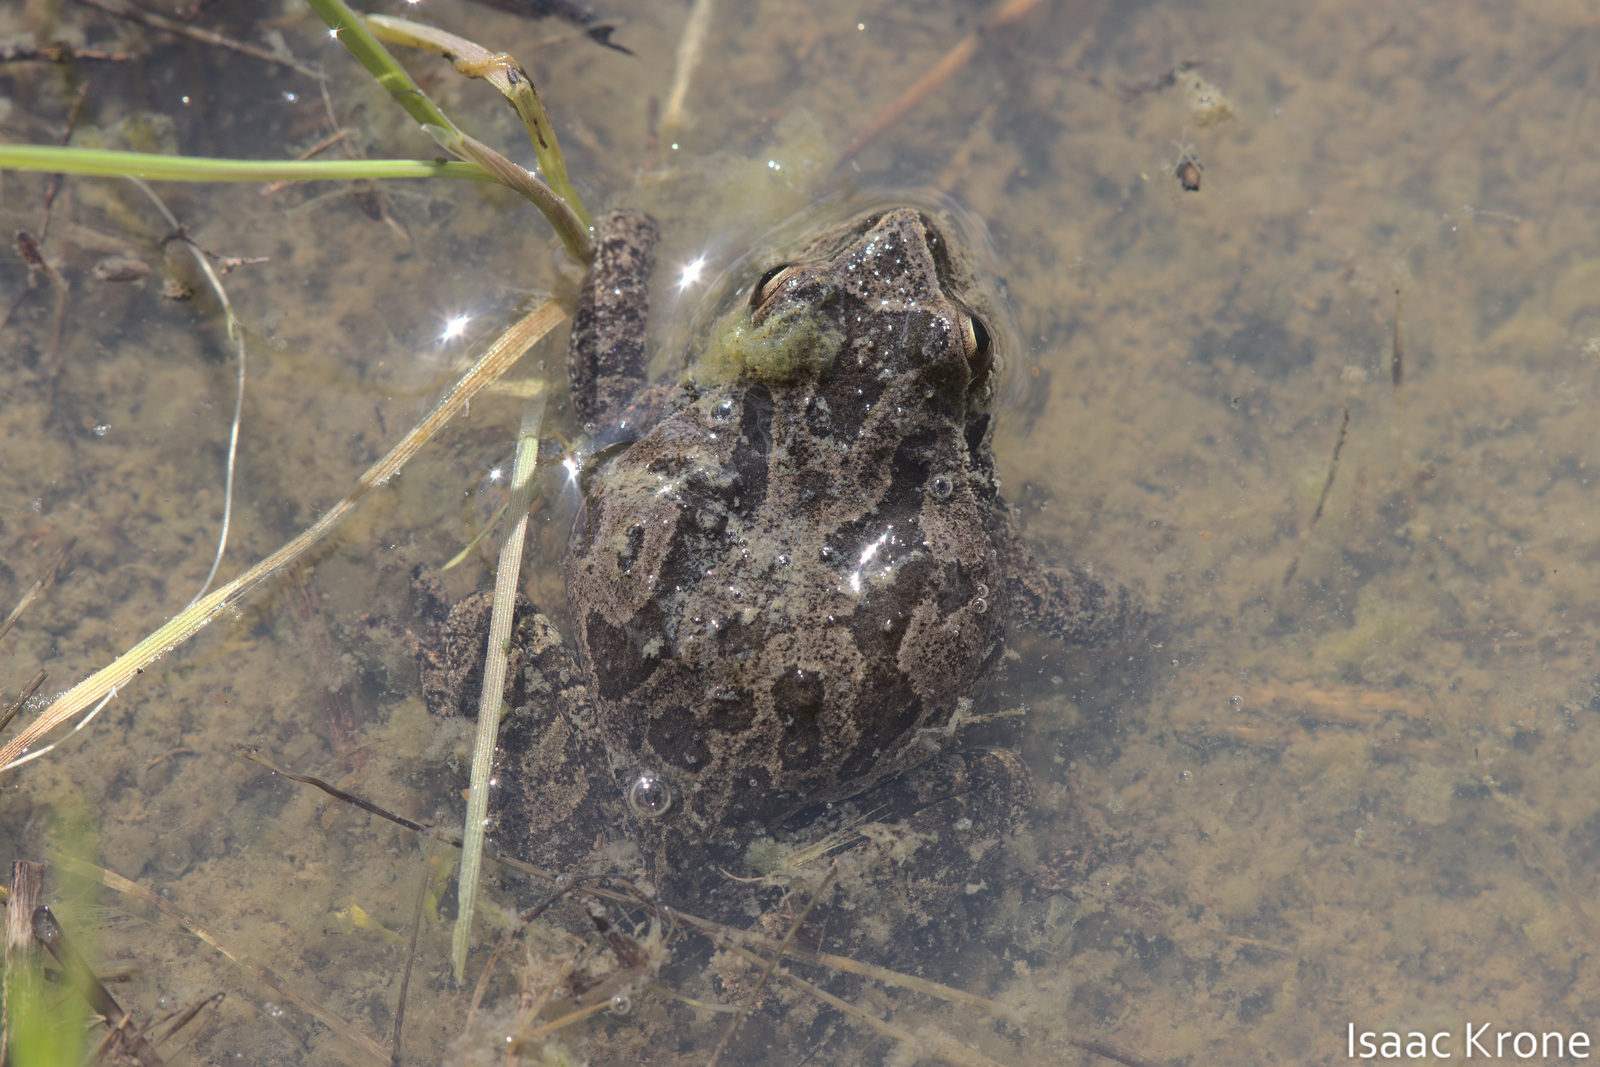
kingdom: Animalia
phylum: Chordata
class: Amphibia
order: Anura
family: Hylidae
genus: Pseudacris
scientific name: Pseudacris regilla
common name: Pacific chorus frog
